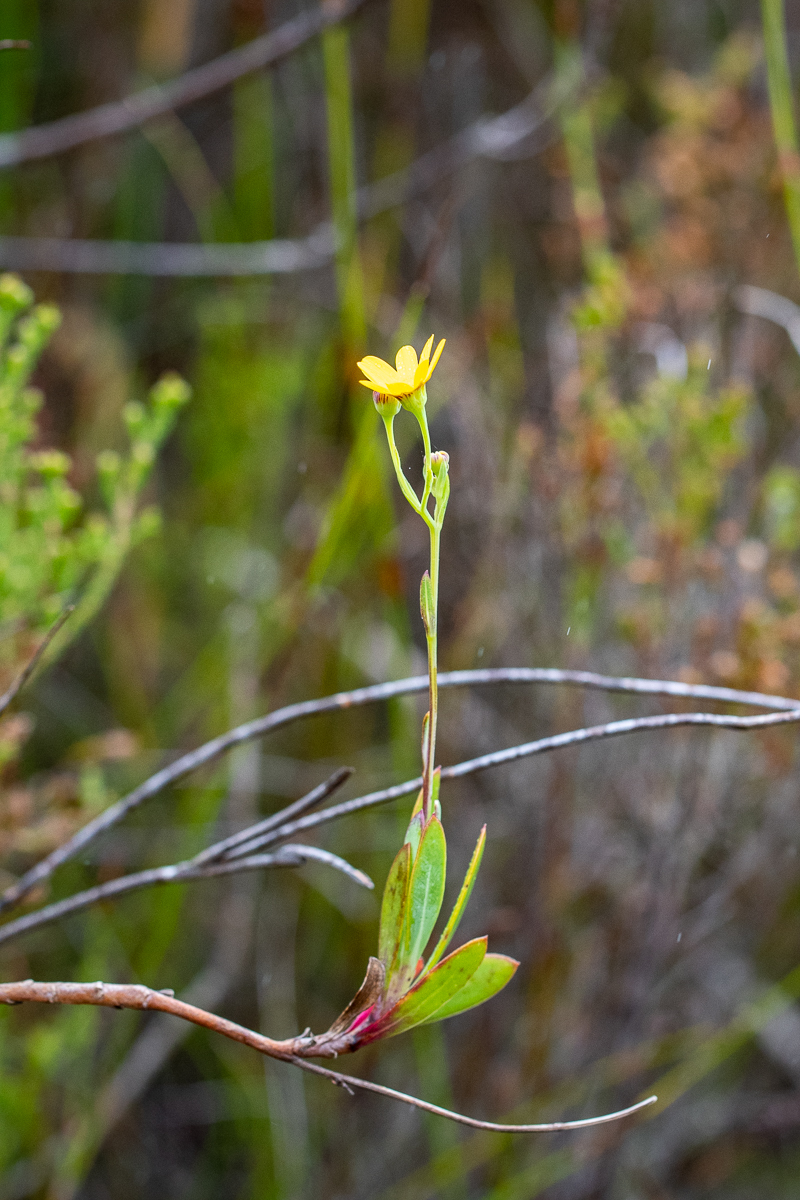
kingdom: Plantae
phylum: Tracheophyta
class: Magnoliopsida
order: Asterales
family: Asteraceae
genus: Othonna
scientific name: Othonna quinquedentata
